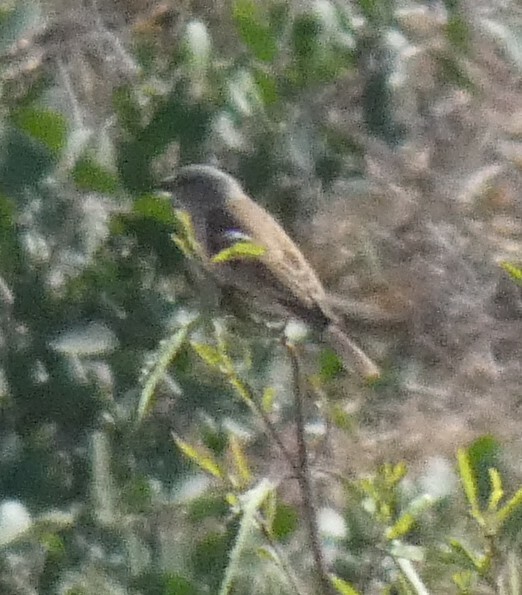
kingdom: Animalia
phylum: Chordata
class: Aves
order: Passeriformes
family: Passeridae
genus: Passer
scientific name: Passer diffusus
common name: Southern grey-headed sparrow
